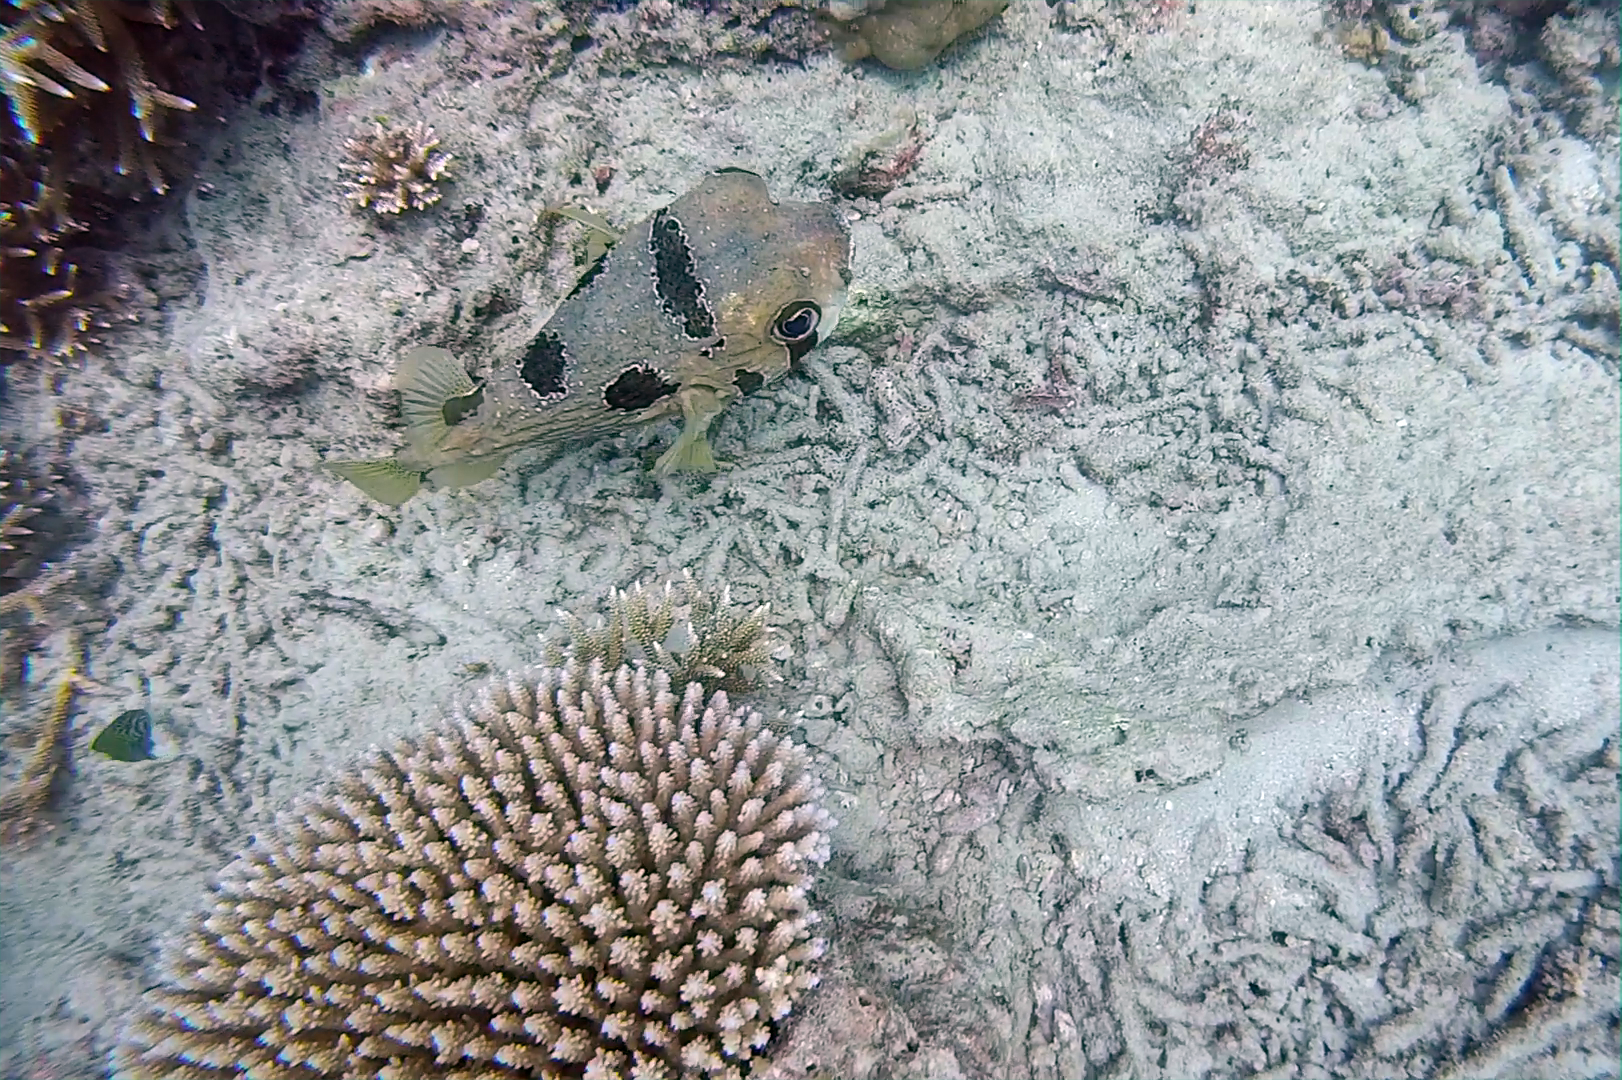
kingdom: Animalia
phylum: Chordata
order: Tetraodontiformes
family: Diodontidae
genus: Diodon
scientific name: Diodon liturosus
